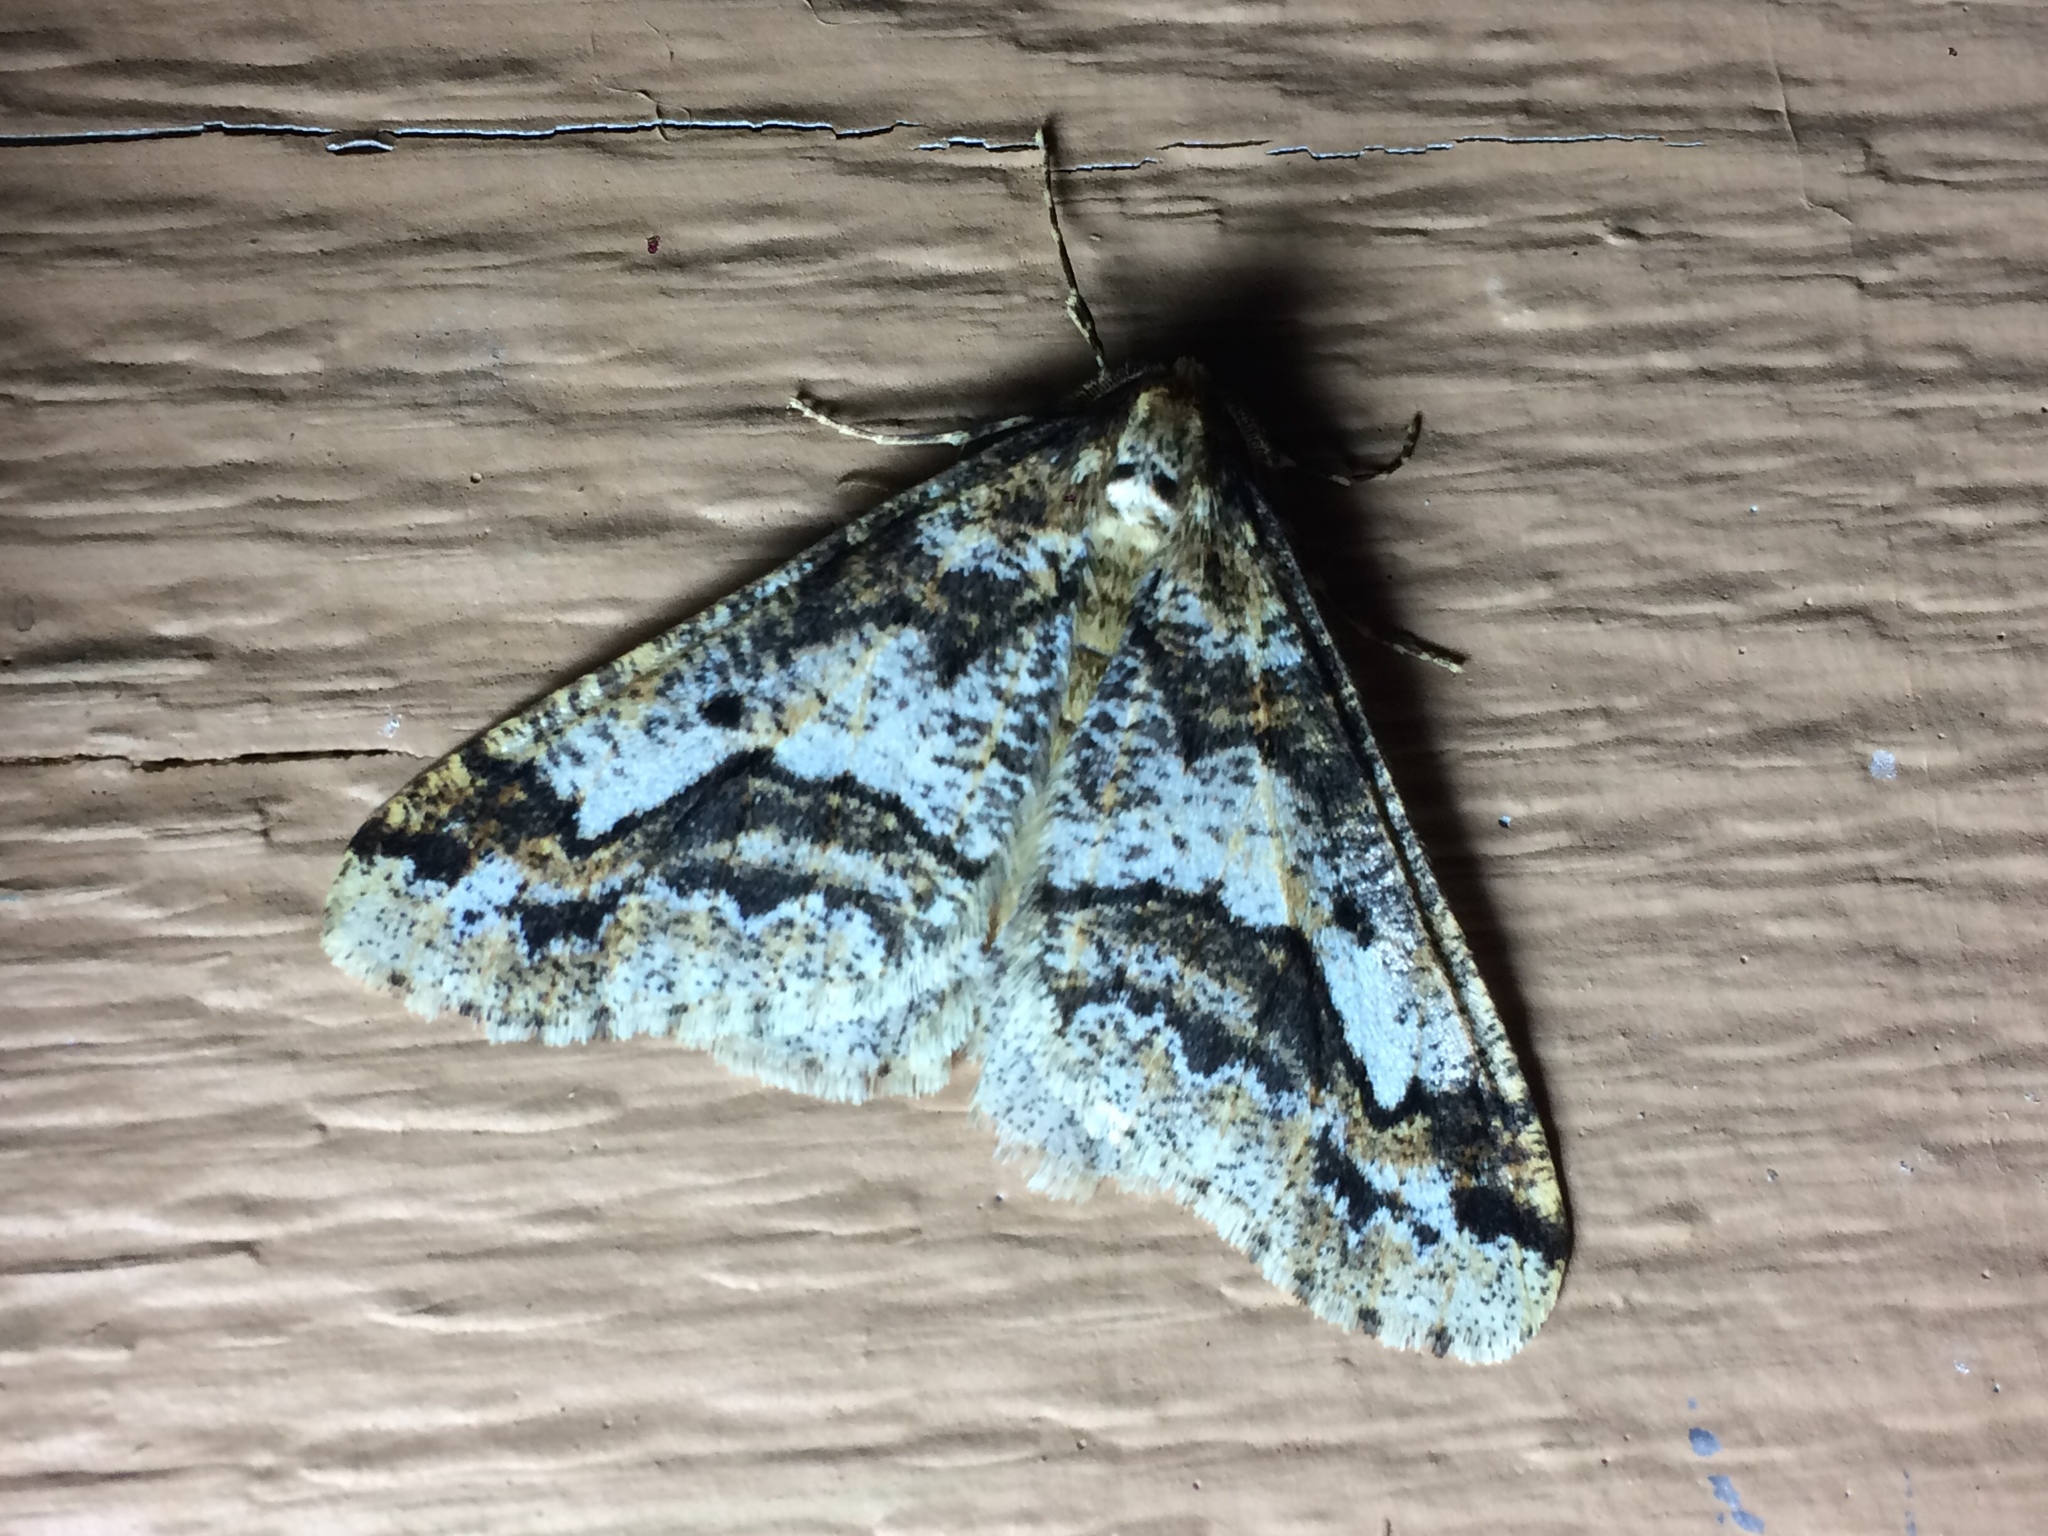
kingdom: Animalia
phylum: Arthropoda
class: Insecta
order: Lepidoptera
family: Geometridae
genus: Erannis
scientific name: Erannis vancouverensis
